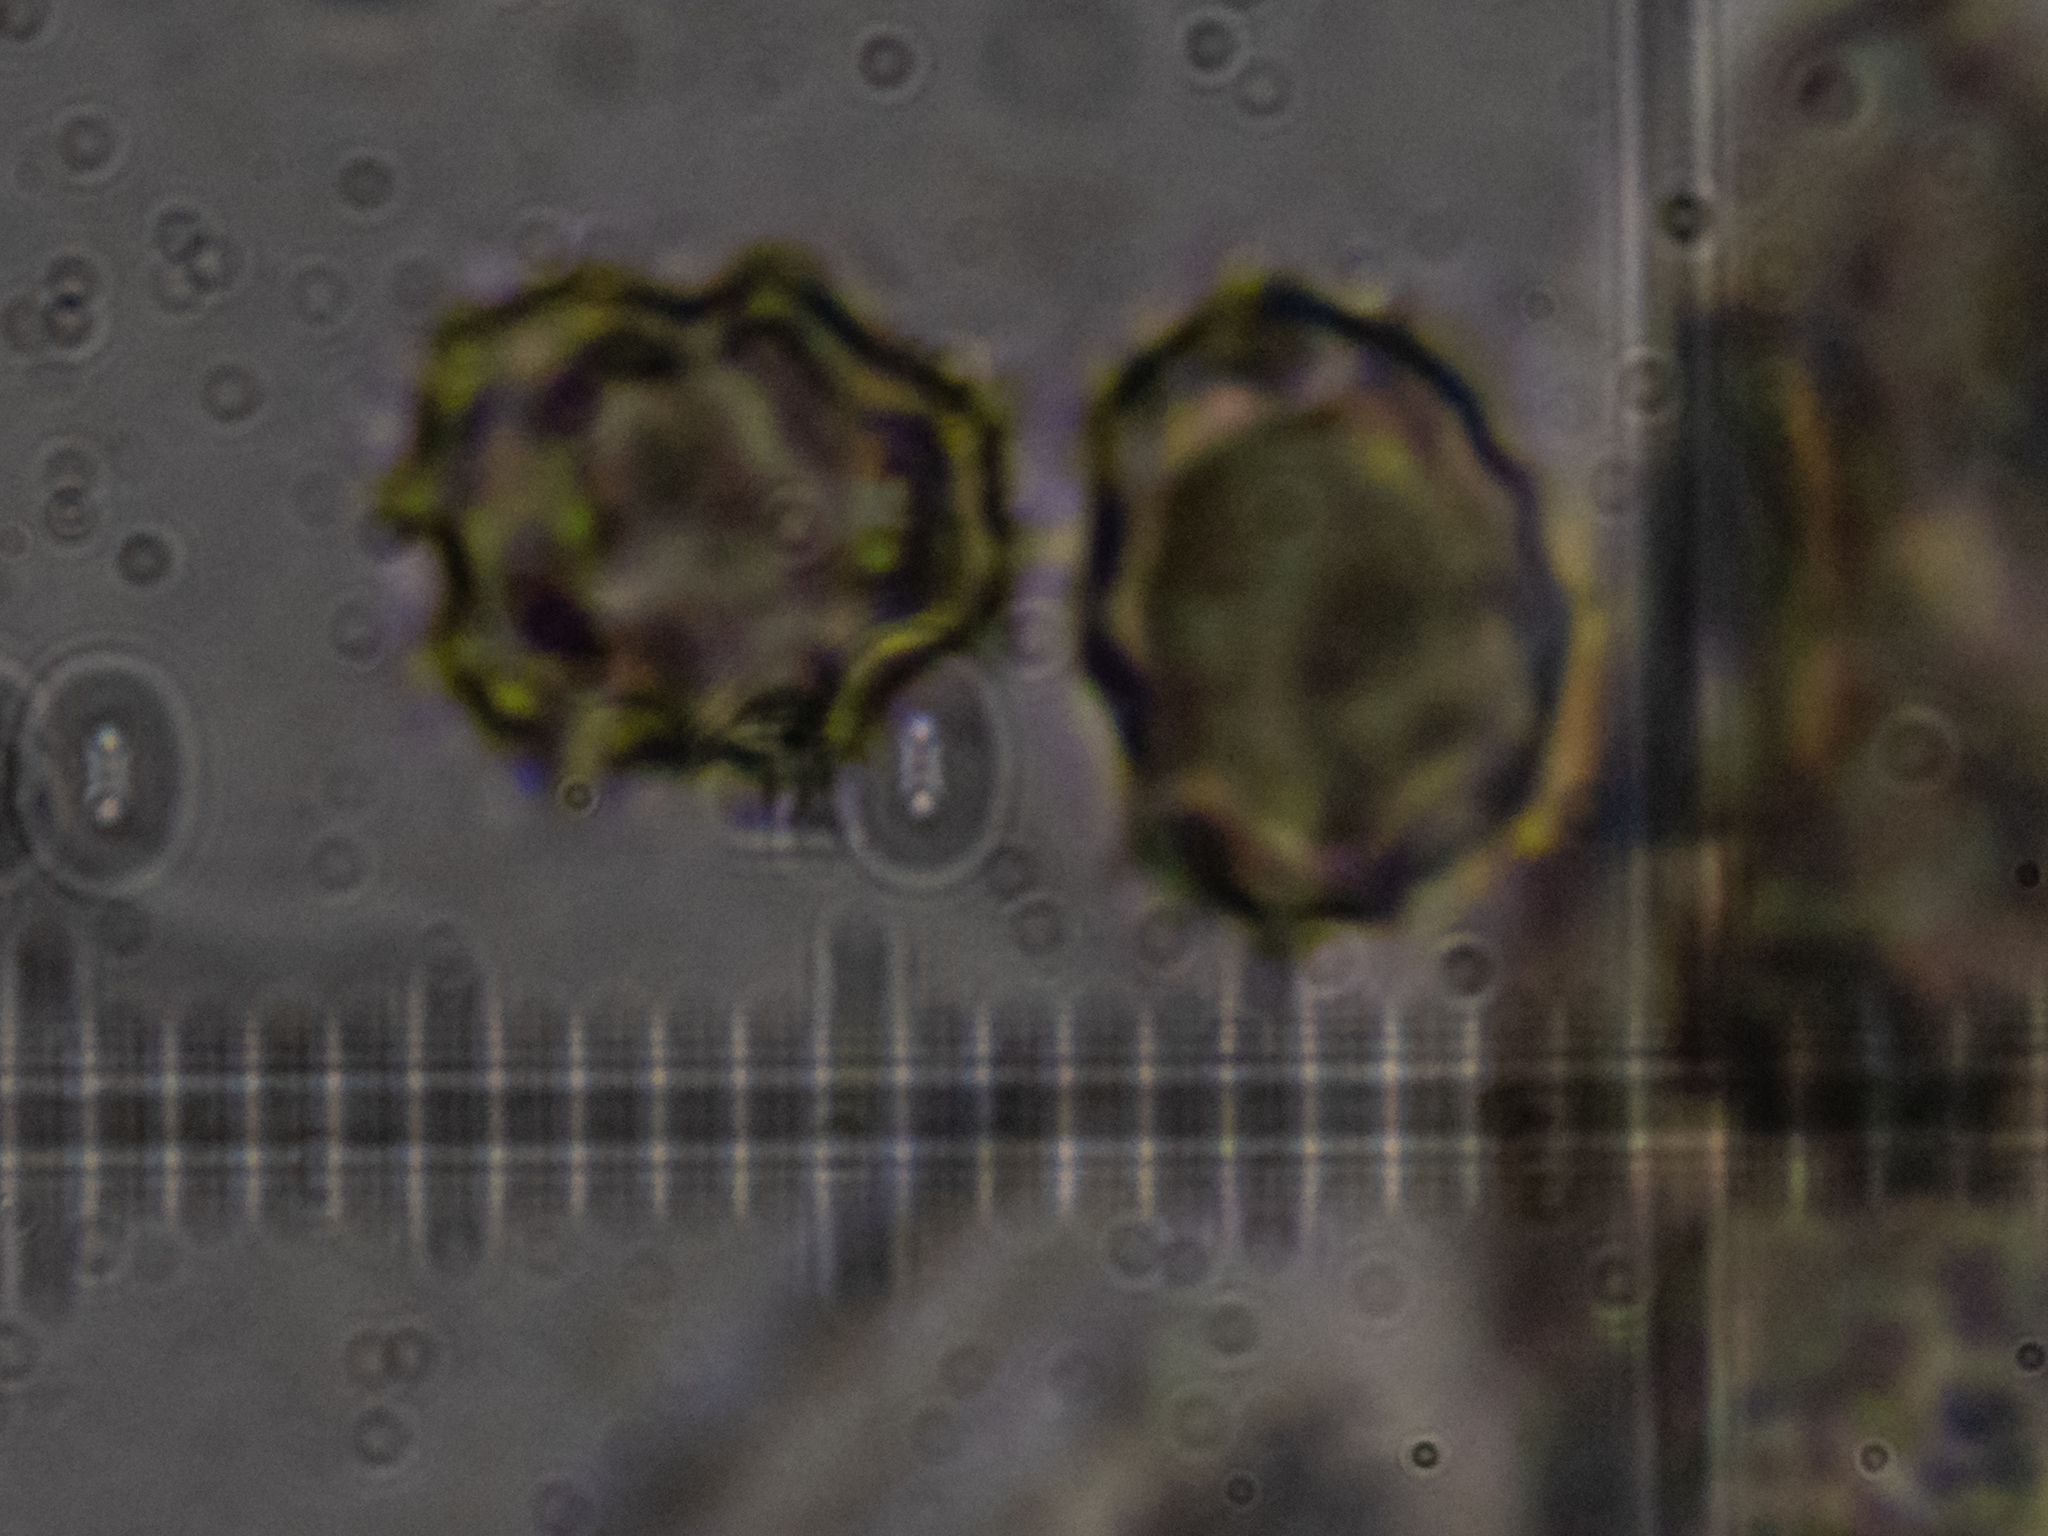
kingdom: Fungi
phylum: Basidiomycota
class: Agaricomycetes
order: Thelephorales
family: Thelephoraceae
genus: Thelephora
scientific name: Thelephora anthocephala
